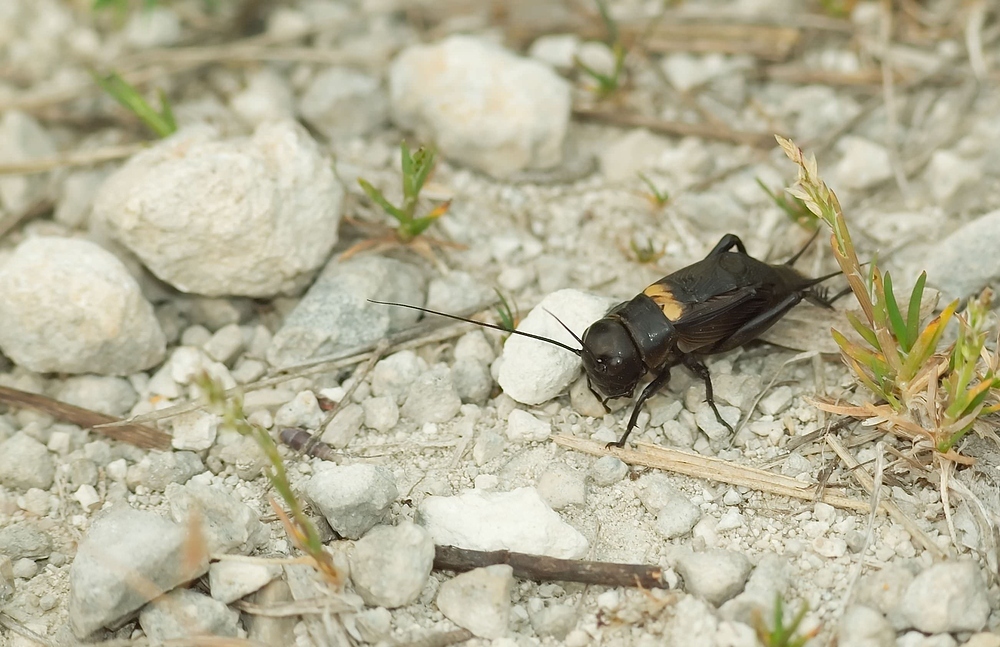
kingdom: Animalia
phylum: Arthropoda
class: Insecta
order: Orthoptera
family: Gryllidae
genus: Gryllus
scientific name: Gryllus campestris
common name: Field cricket
